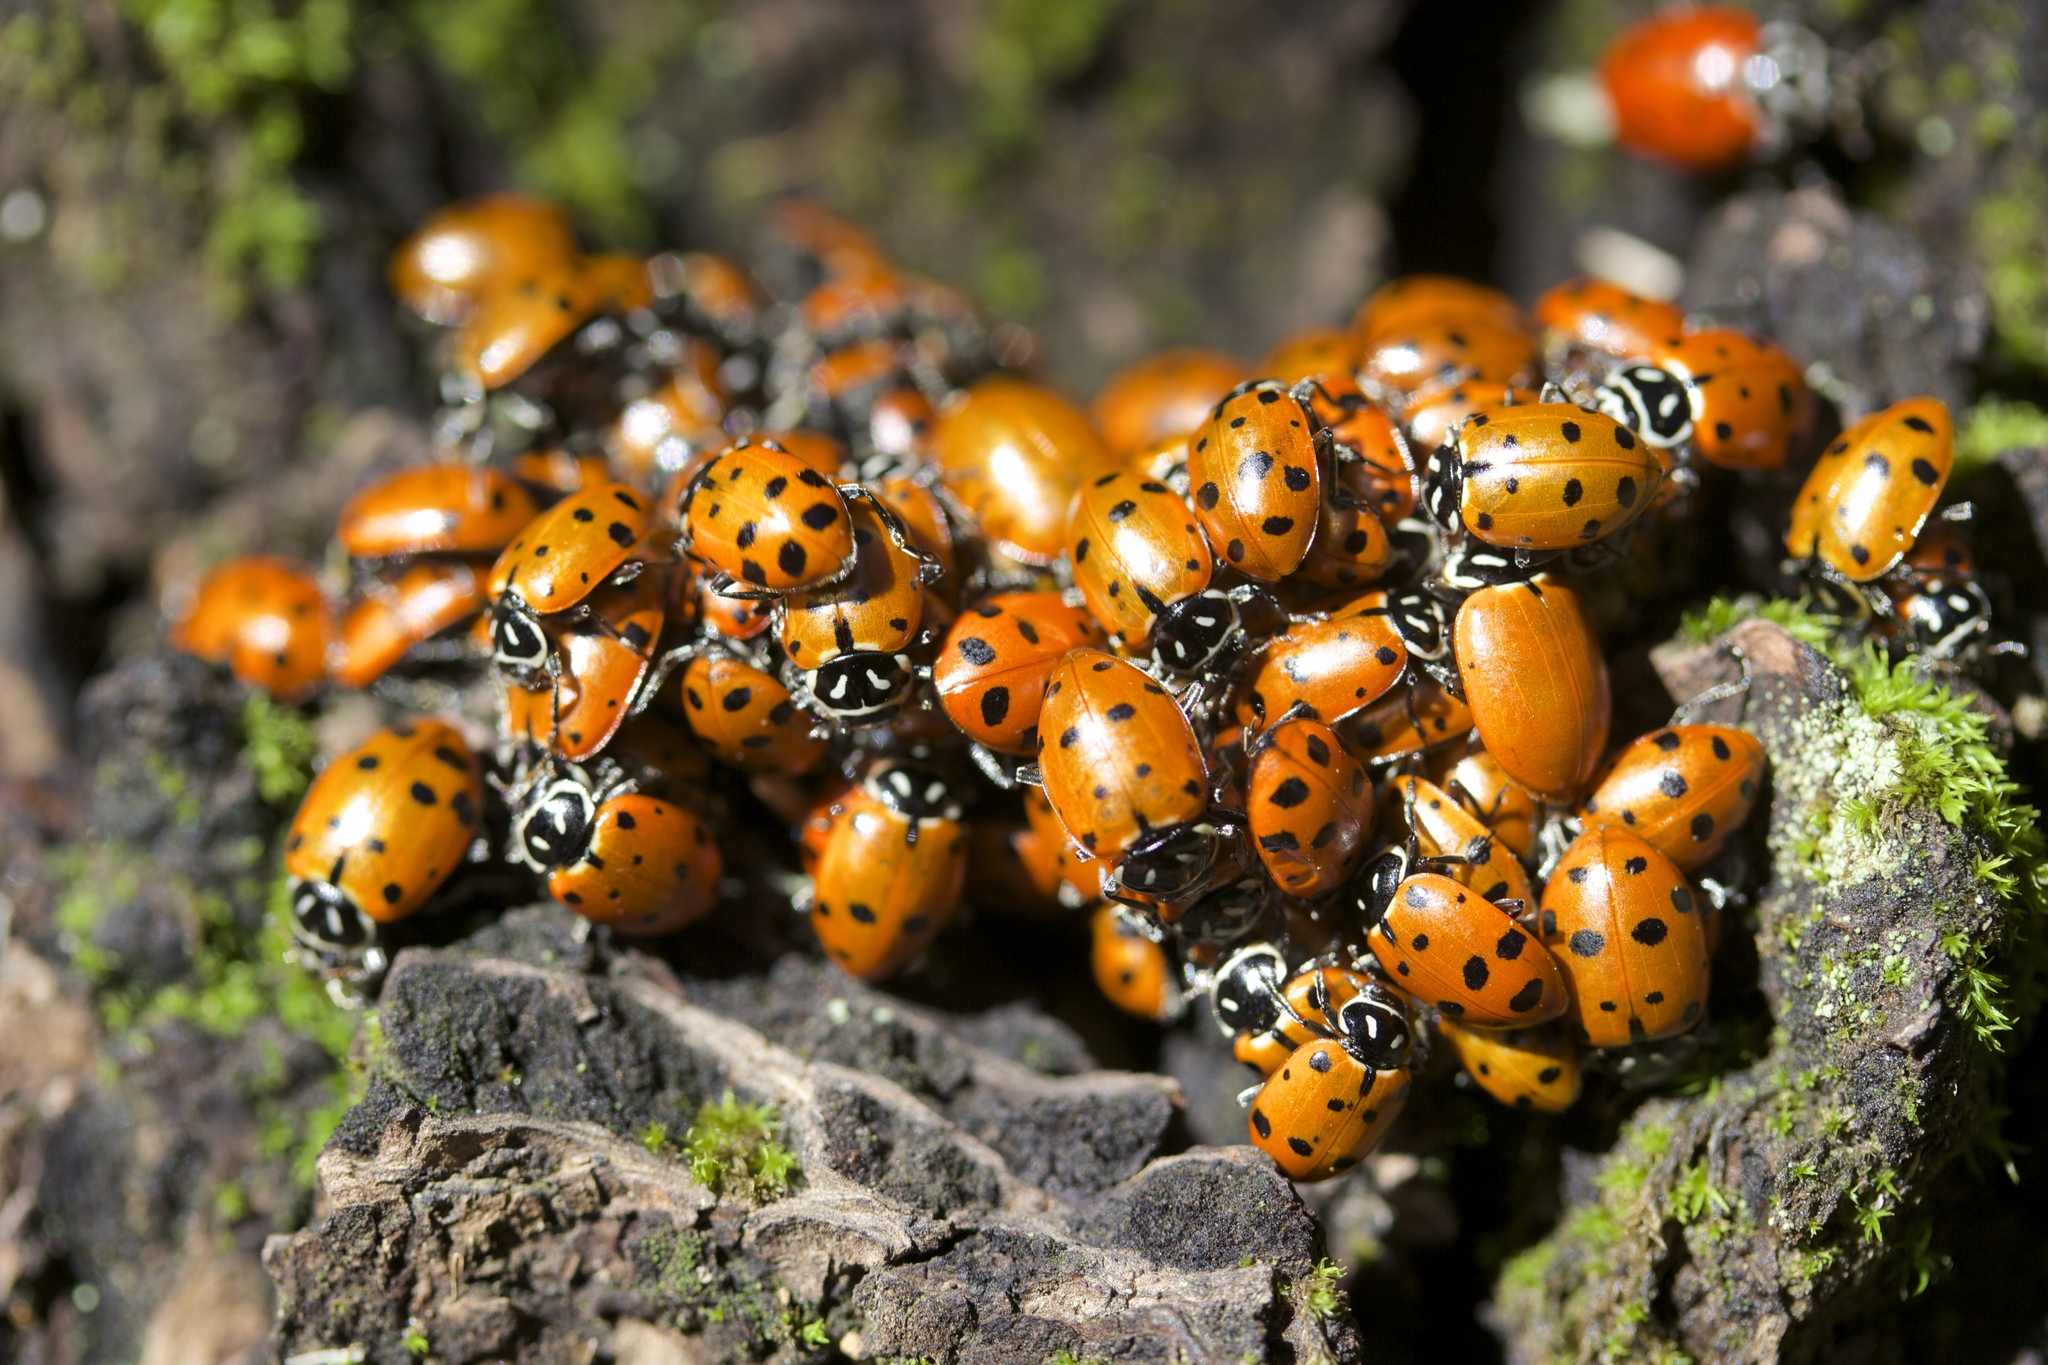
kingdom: Animalia
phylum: Arthropoda
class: Insecta
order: Coleoptera
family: Coccinellidae
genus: Hippodamia
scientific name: Hippodamia convergens
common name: Convergent lady beetle
